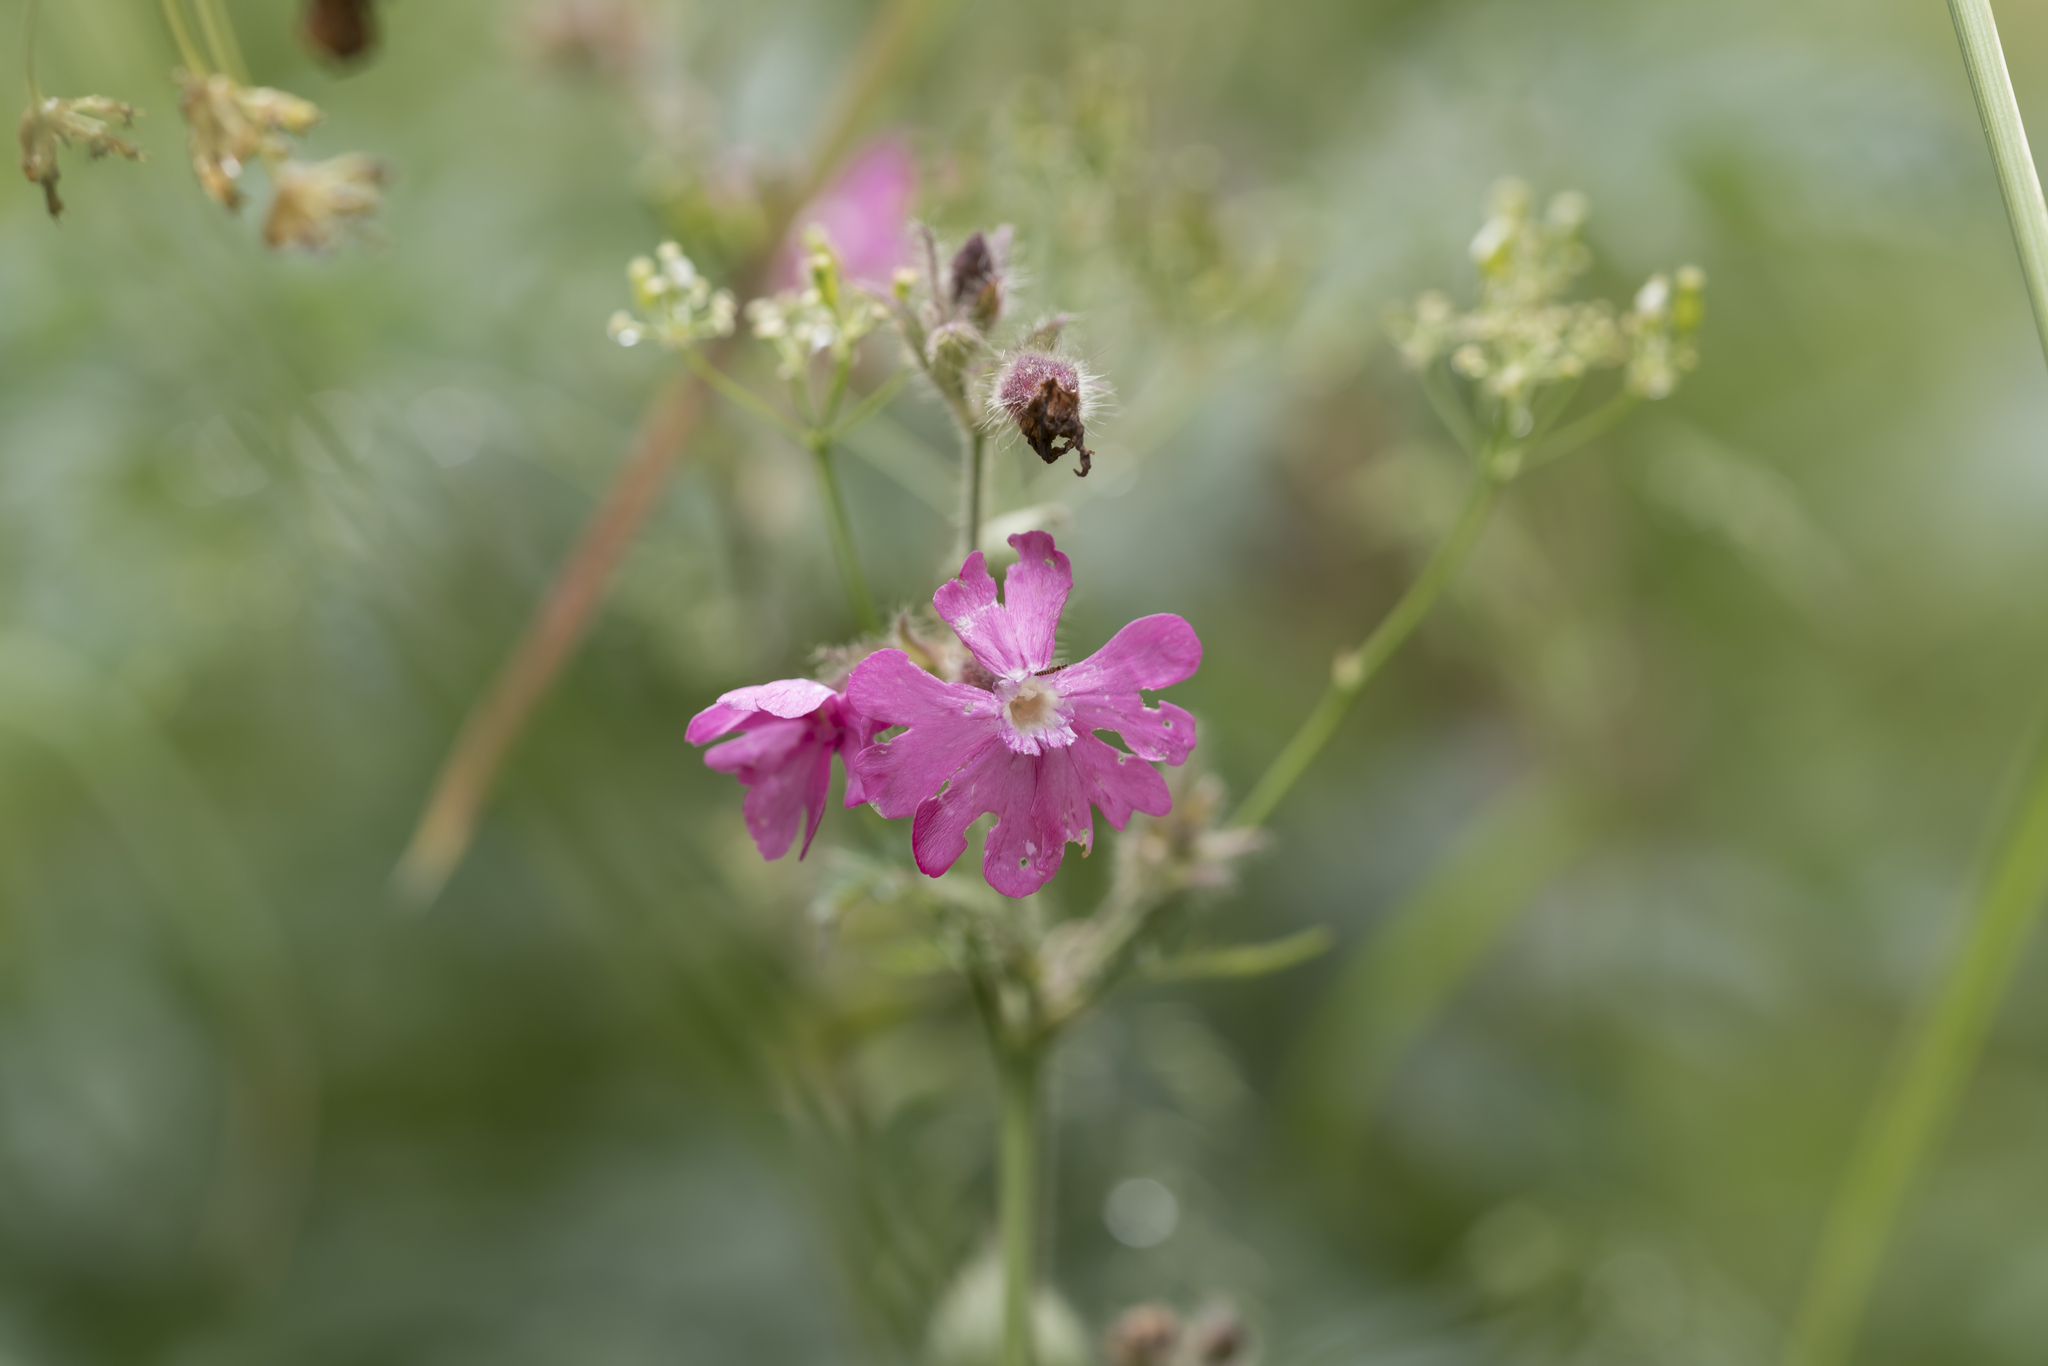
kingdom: Plantae
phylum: Tracheophyta
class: Magnoliopsida
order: Caryophyllales
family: Caryophyllaceae
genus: Silene
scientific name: Silene dioica
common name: Red campion
